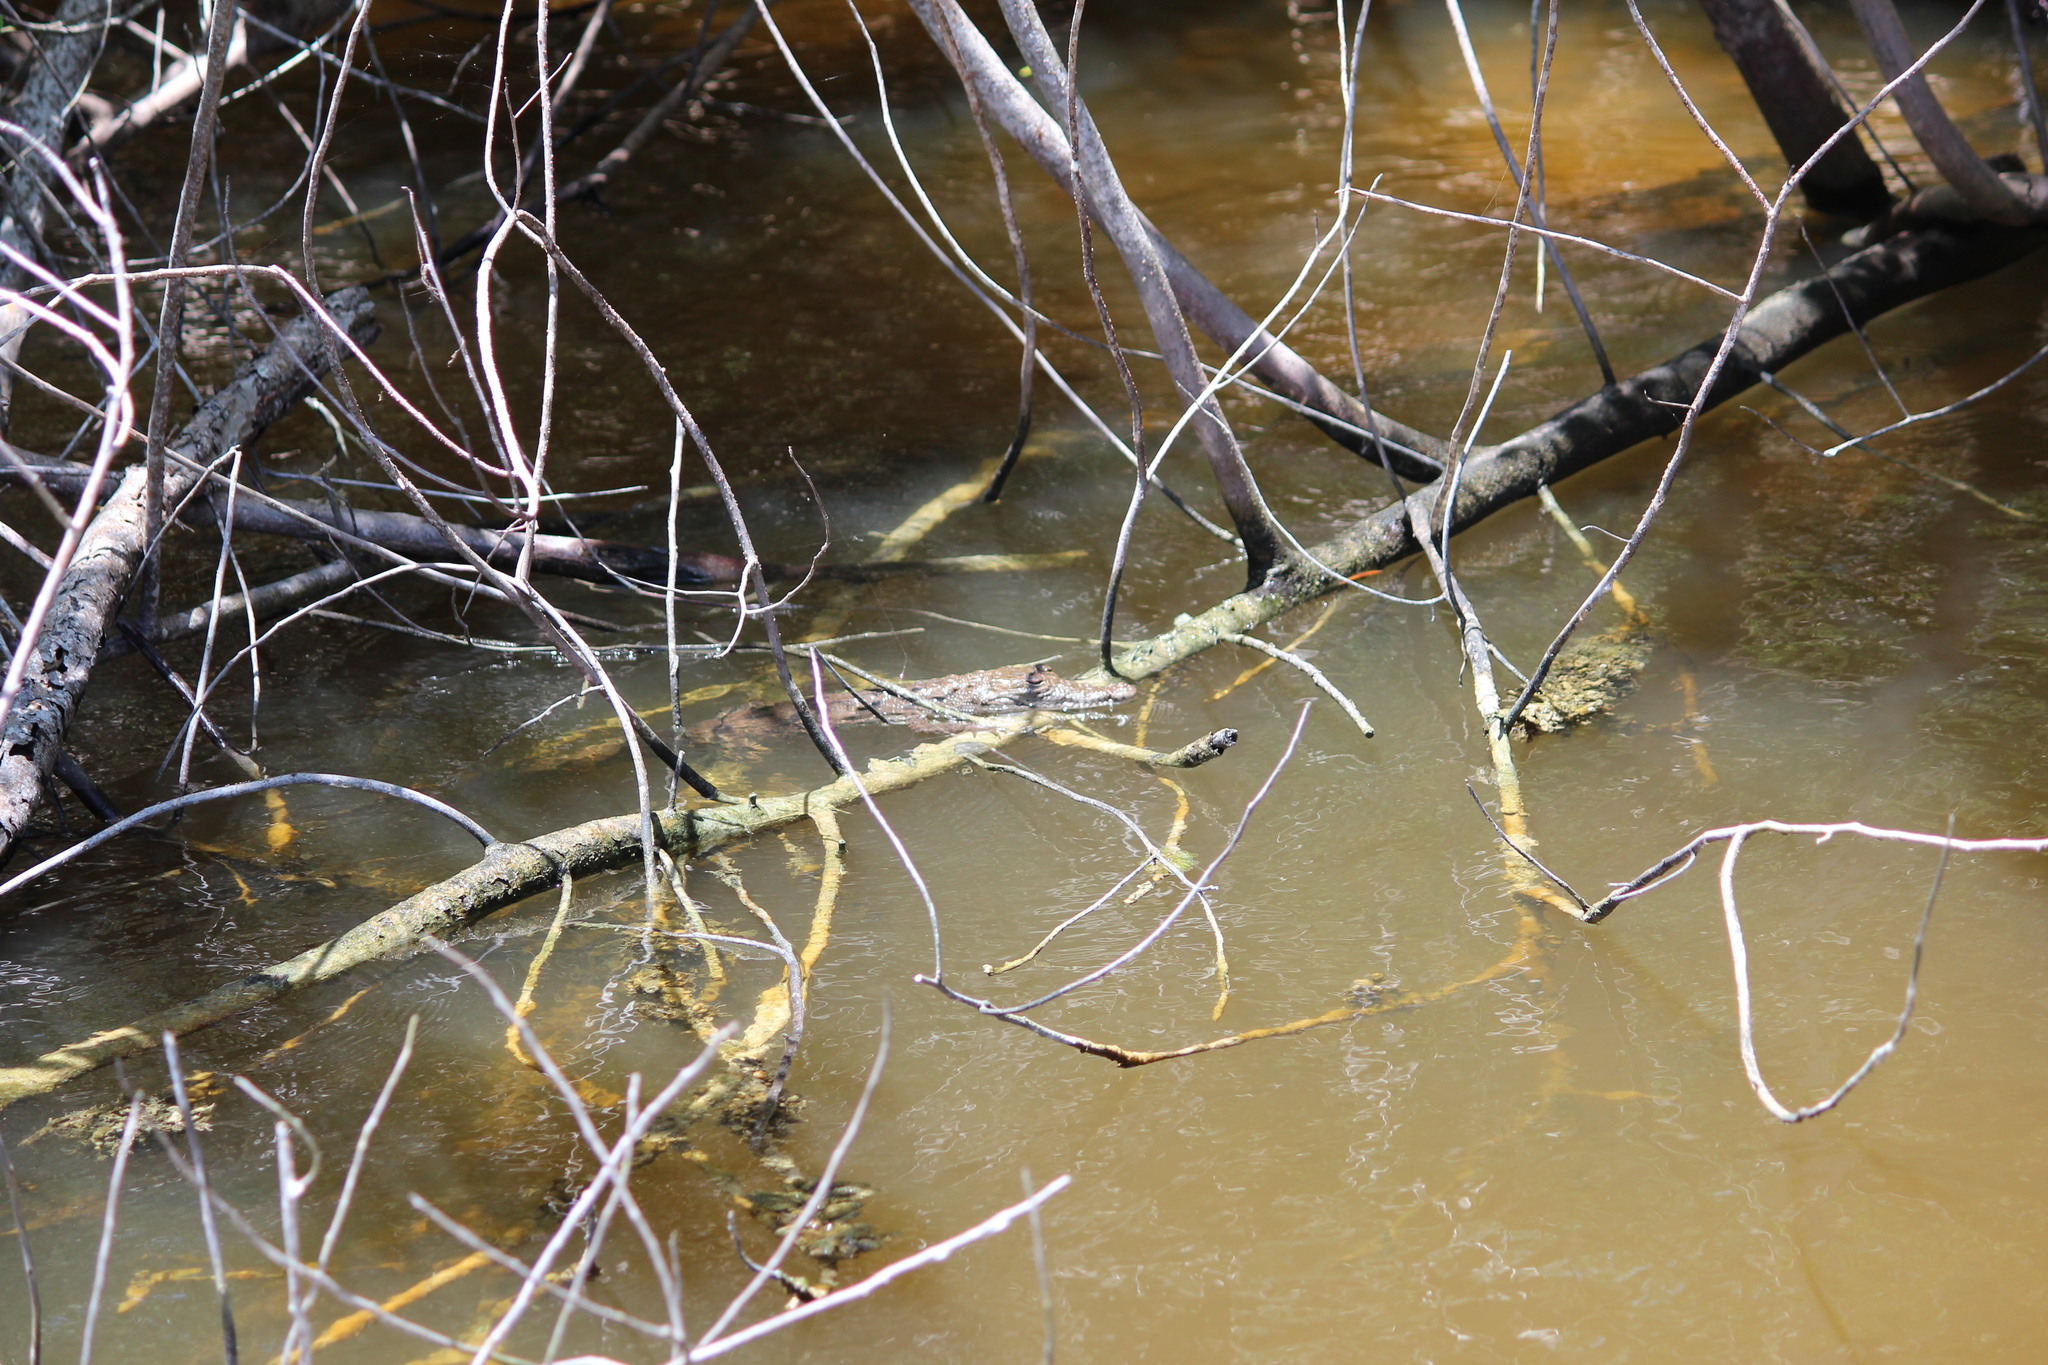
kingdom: Animalia
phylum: Chordata
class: Crocodylia
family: Crocodylidae
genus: Crocodylus
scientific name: Crocodylus acutus
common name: American crocodile
